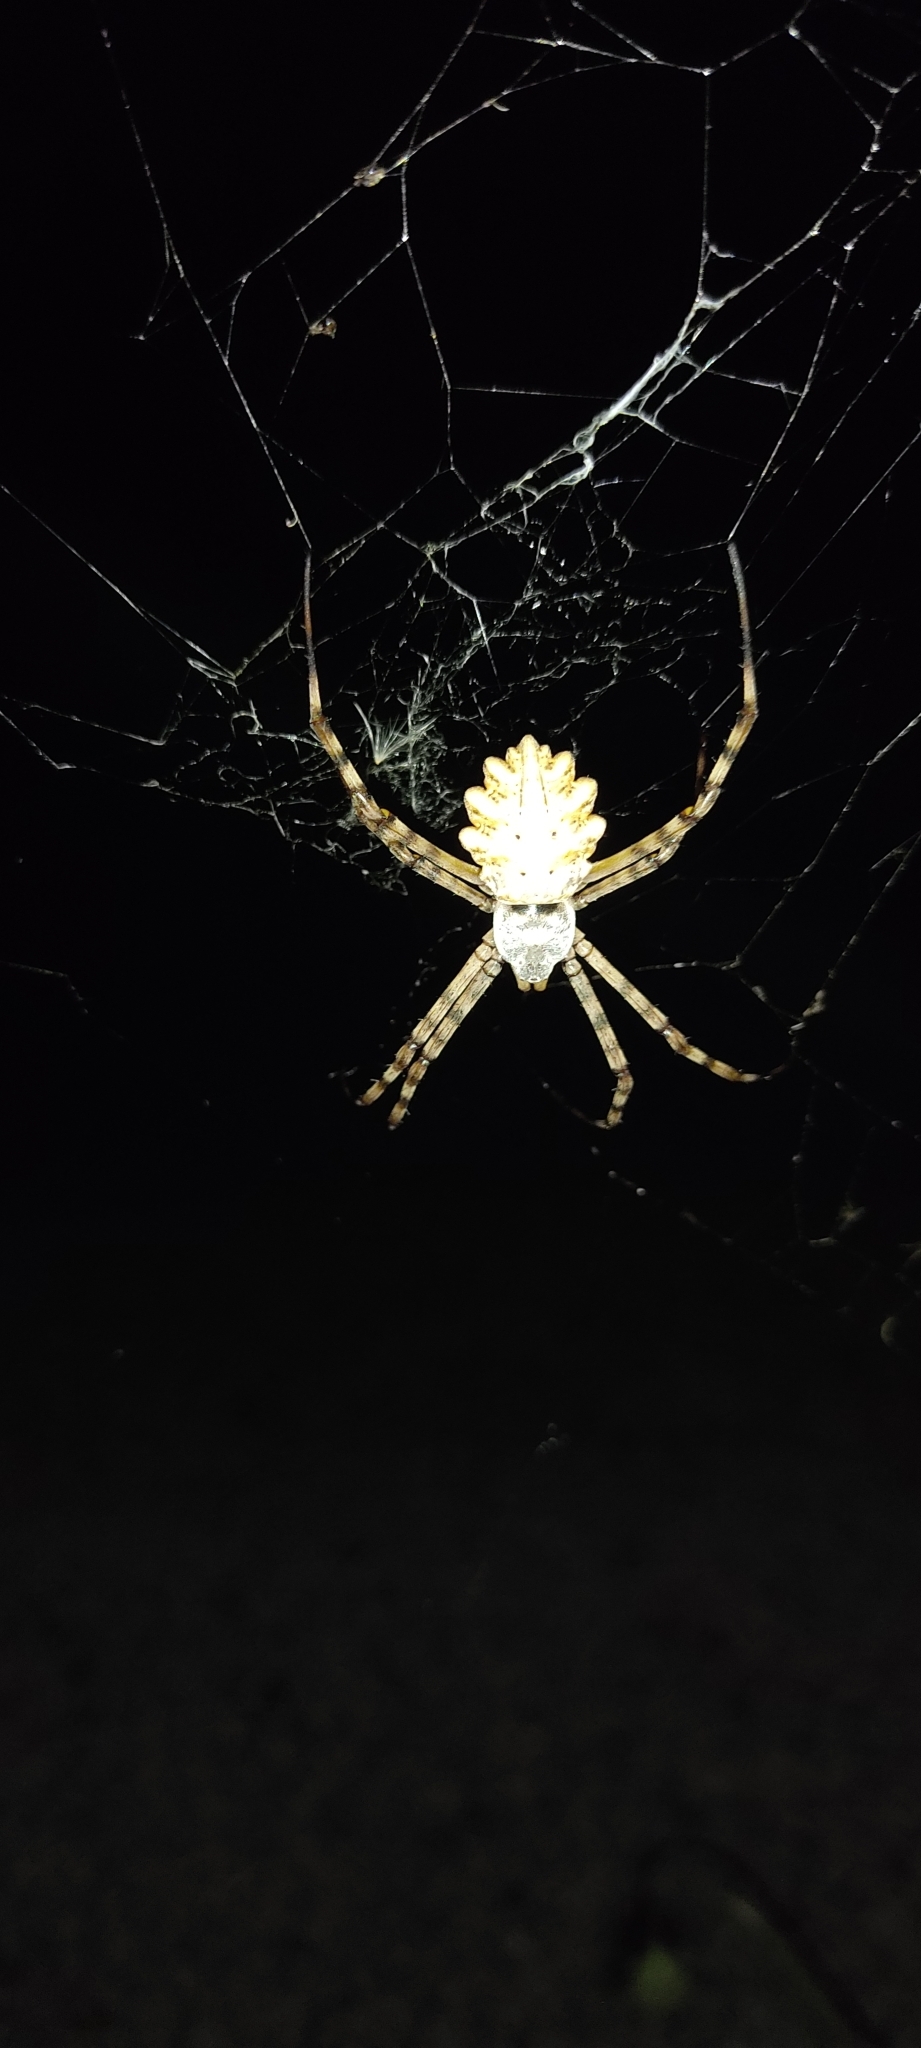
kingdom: Animalia
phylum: Arthropoda
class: Arachnida
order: Araneae
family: Araneidae
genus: Argiope
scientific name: Argiope lobata
